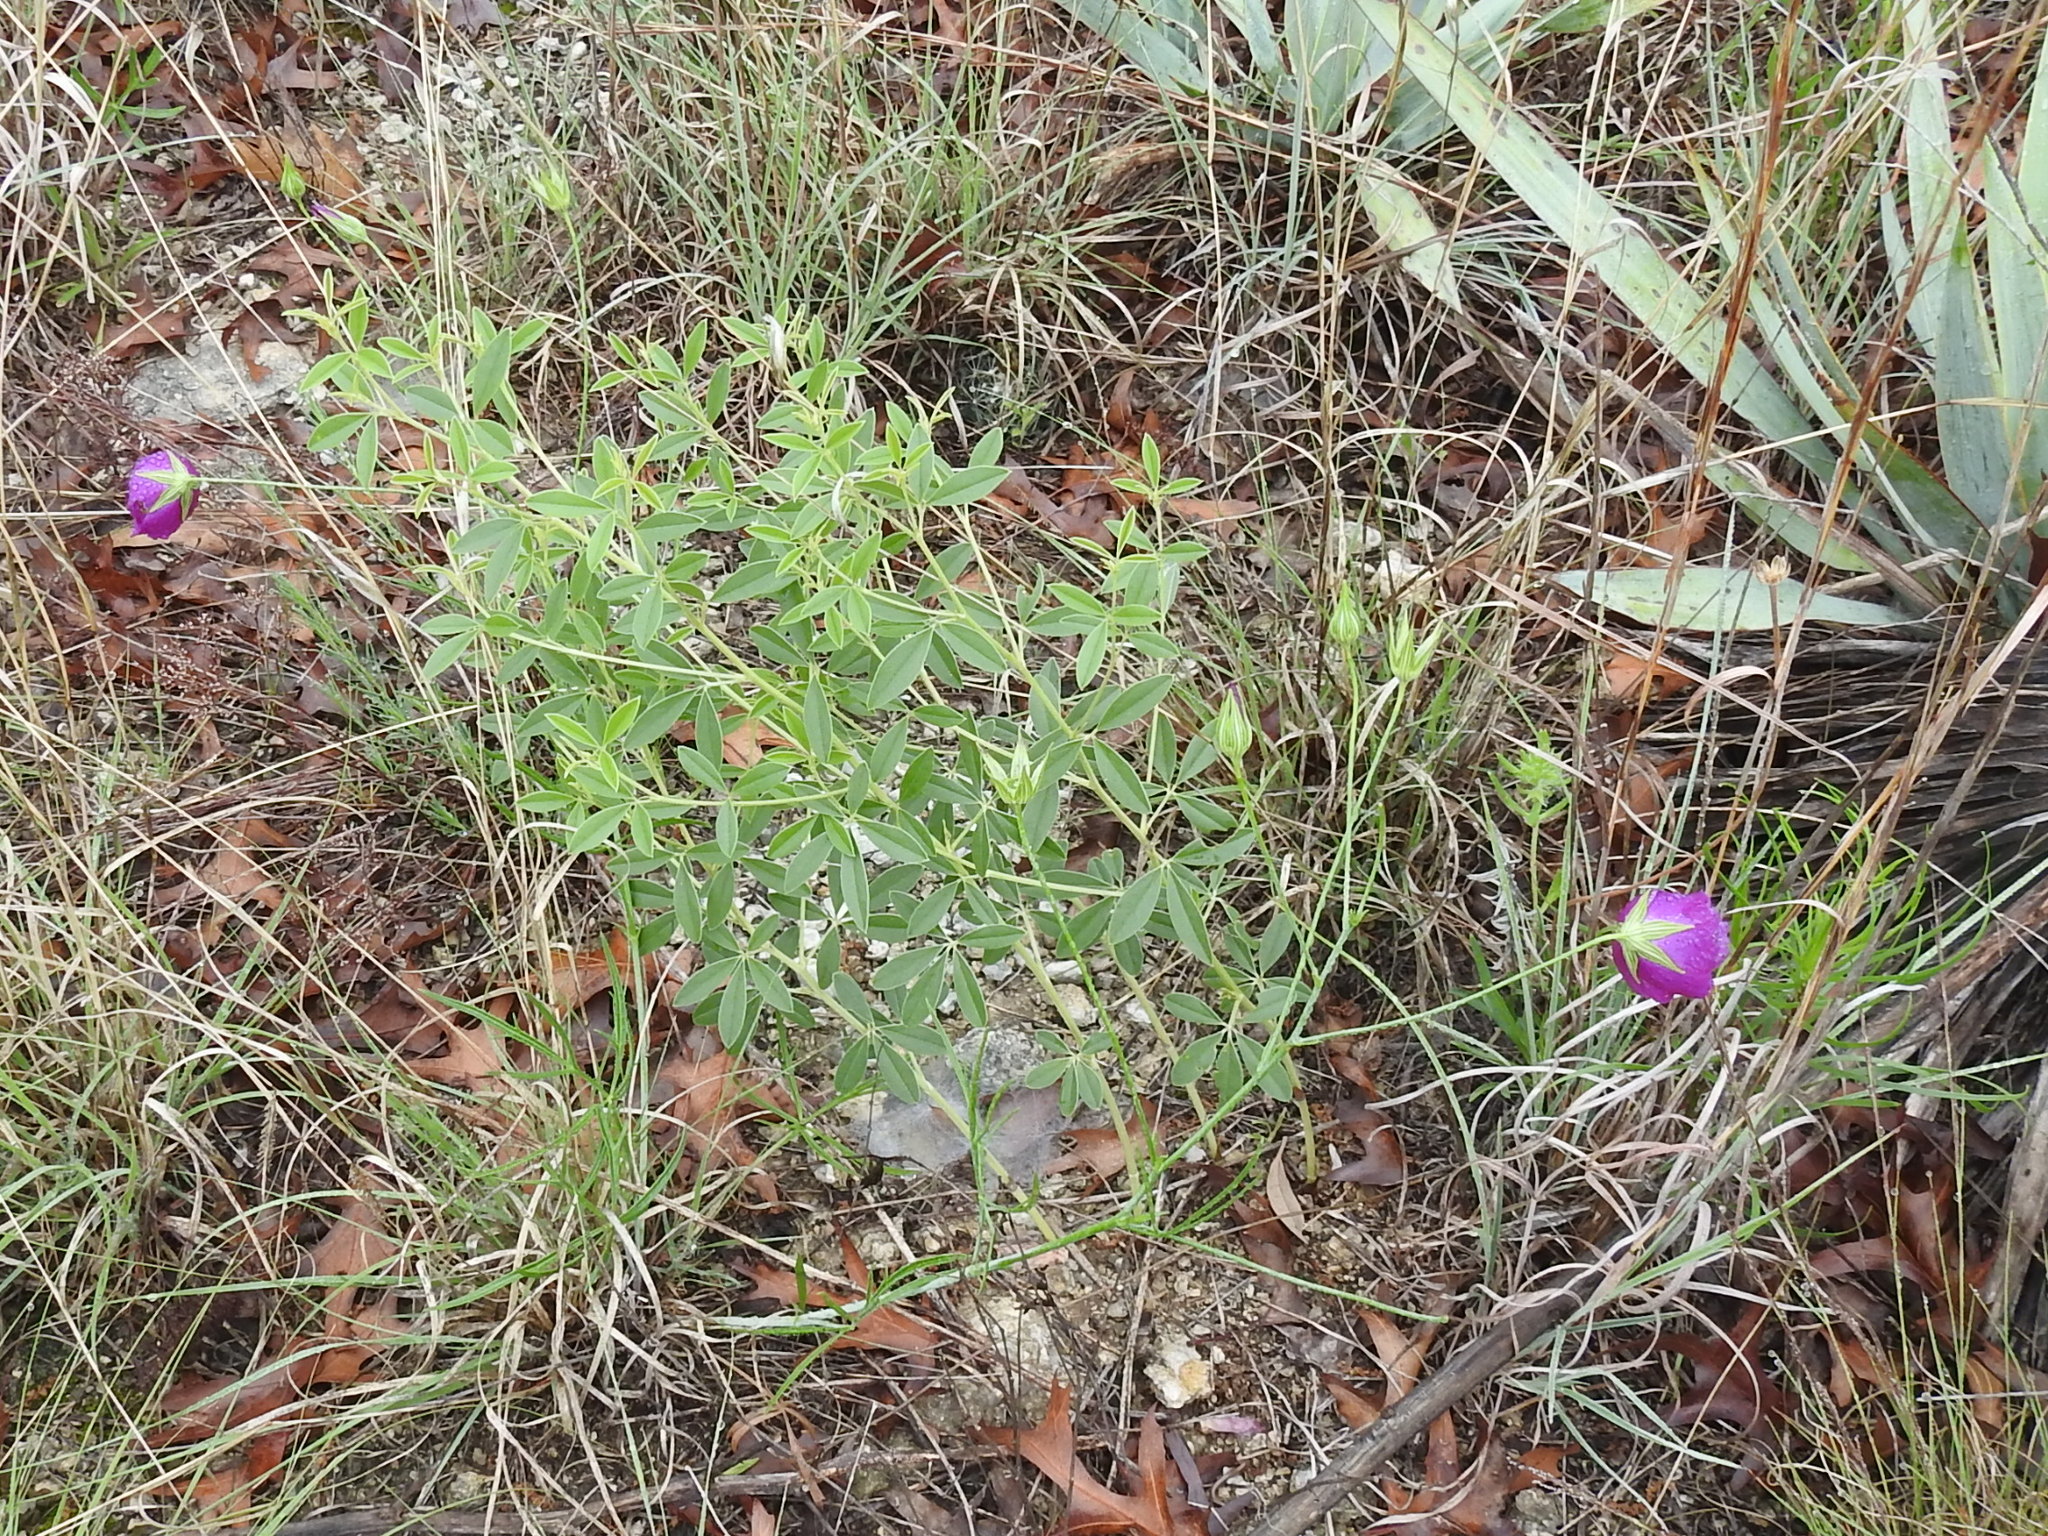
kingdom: Plantae
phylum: Tracheophyta
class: Magnoliopsida
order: Malvales
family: Malvaceae
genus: Callirhoe
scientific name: Callirhoe pedata
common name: Finger poppy-mallow
